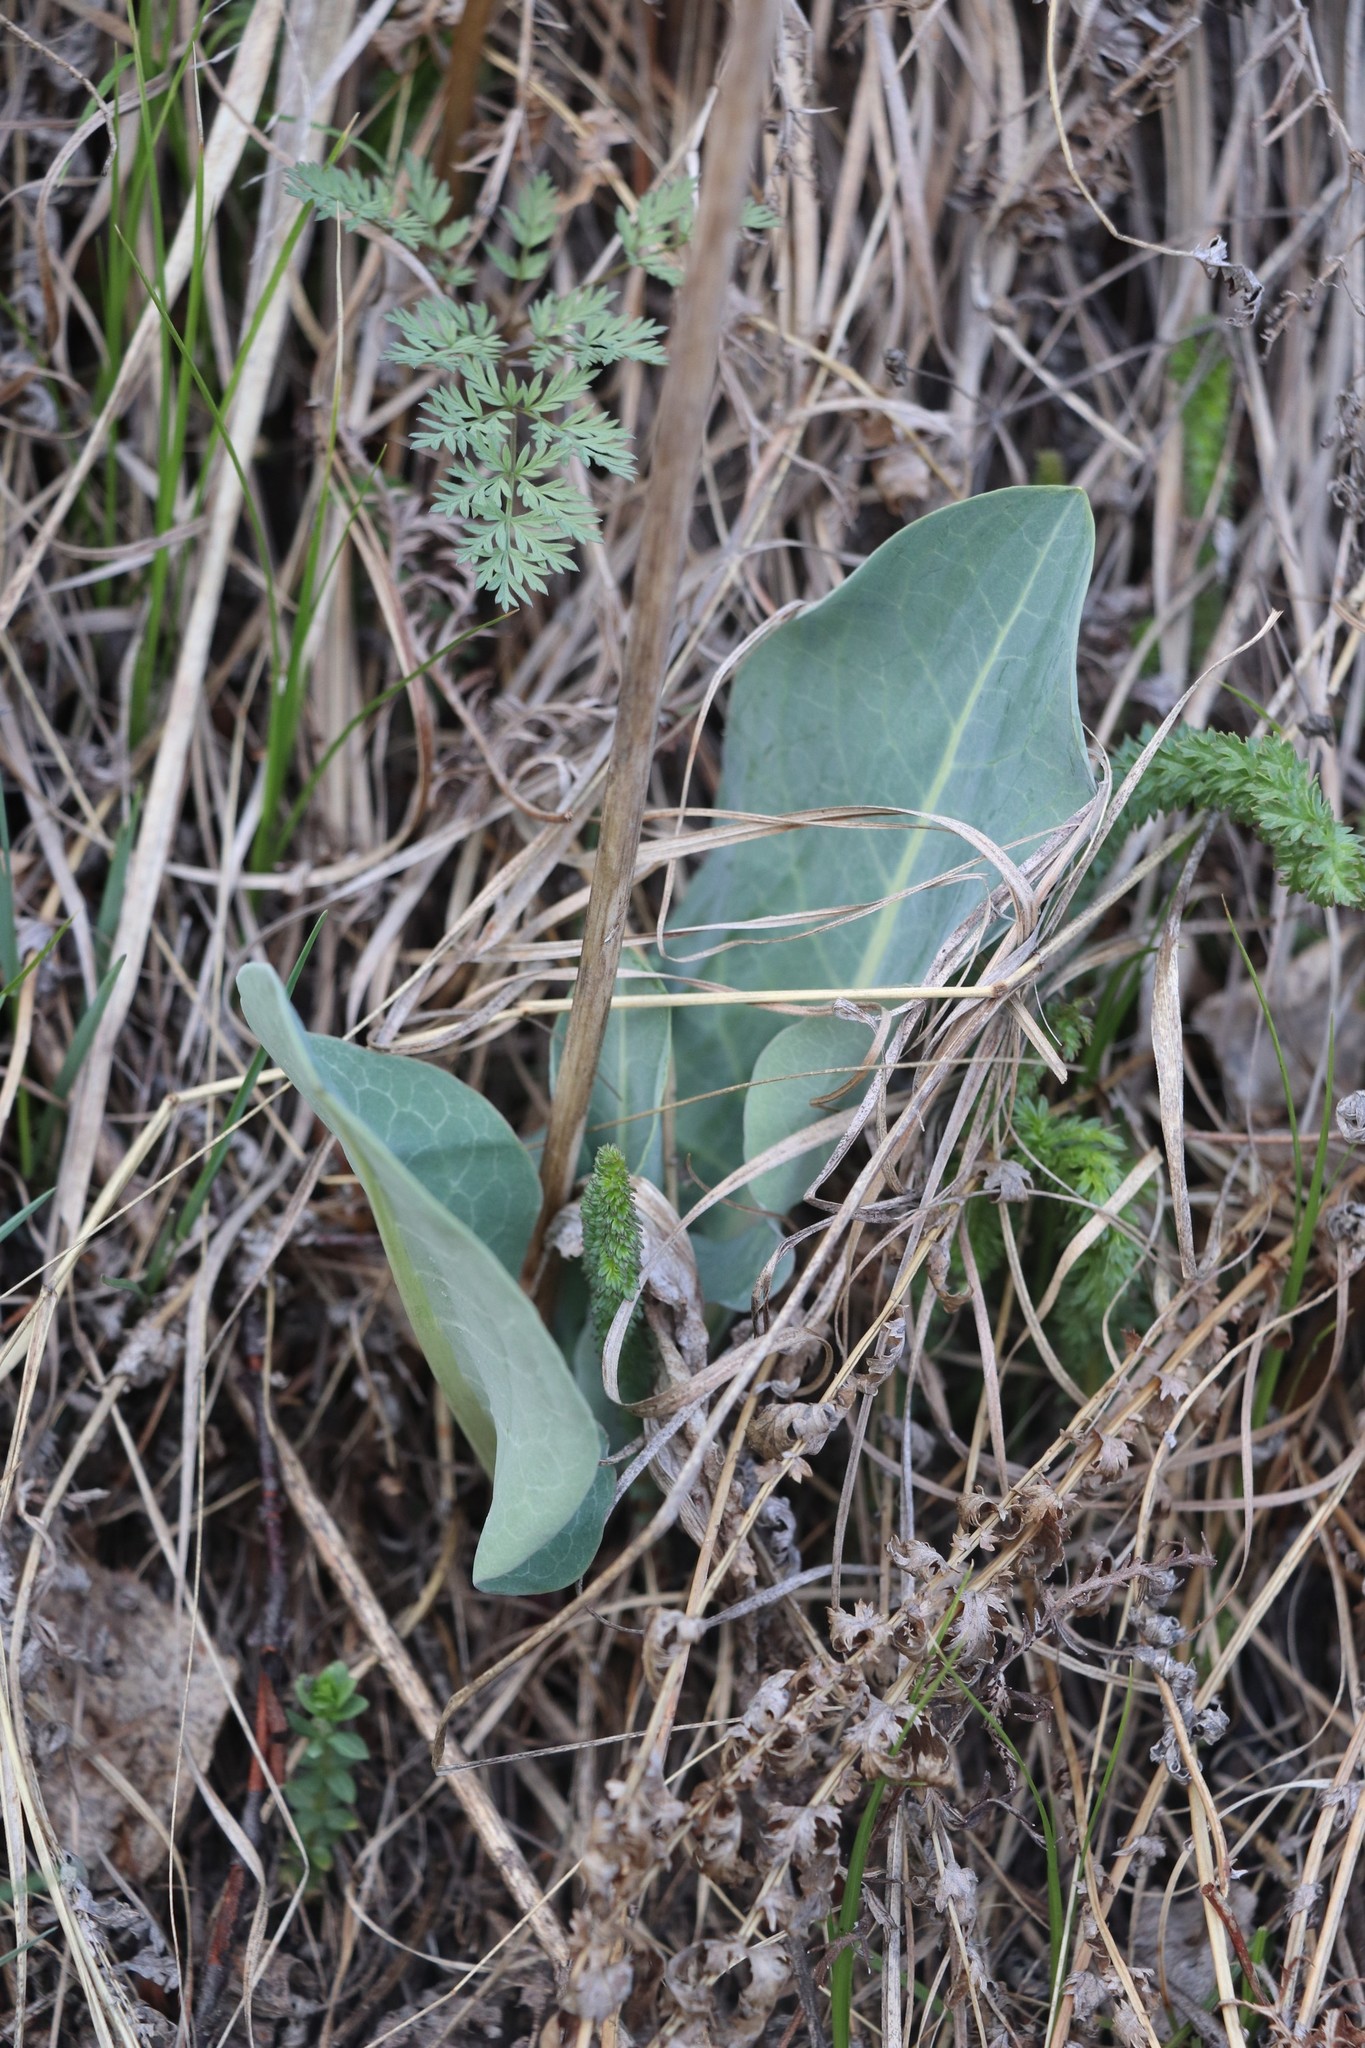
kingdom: Plantae
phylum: Tracheophyta
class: Magnoliopsida
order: Asterales
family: Asteraceae
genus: Ligularia
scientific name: Ligularia glauca
